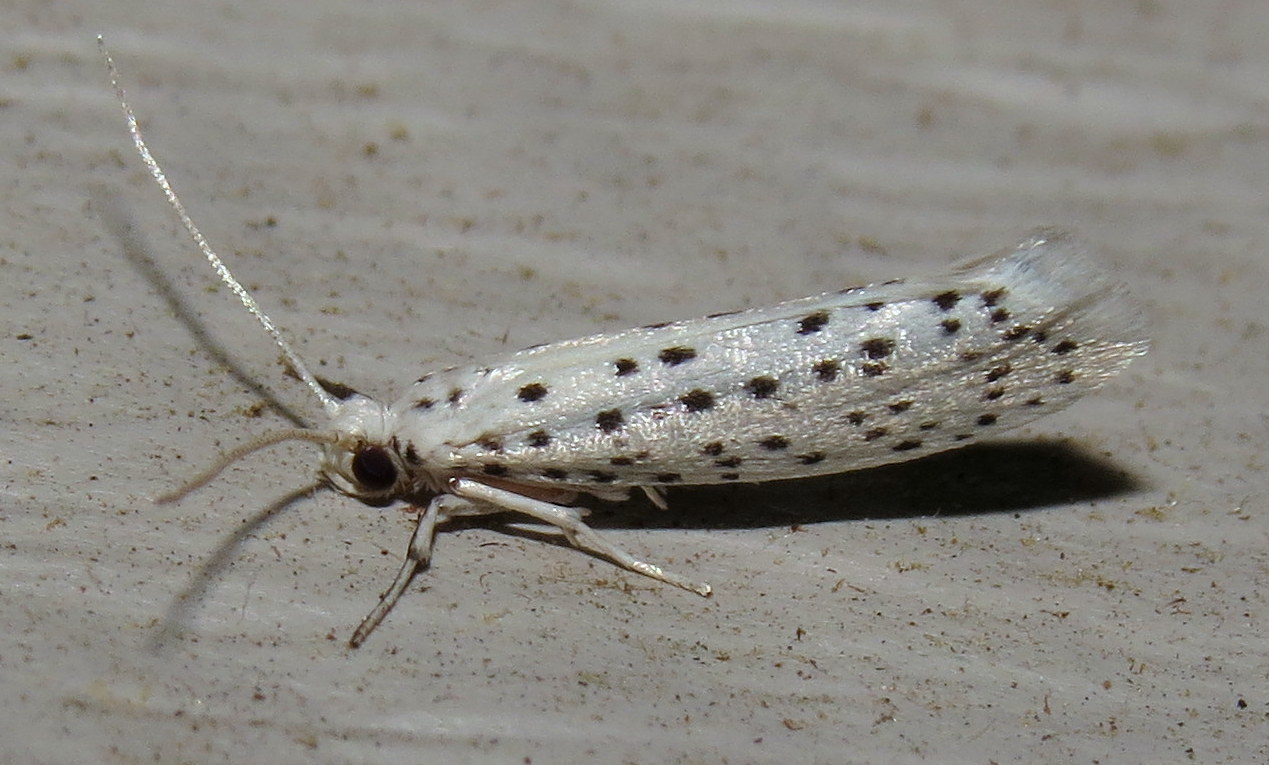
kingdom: Animalia
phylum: Arthropoda
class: Insecta
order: Lepidoptera
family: Yponomeutidae
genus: Yponomeuta
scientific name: Yponomeuta multipunctella
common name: American ermine moth
